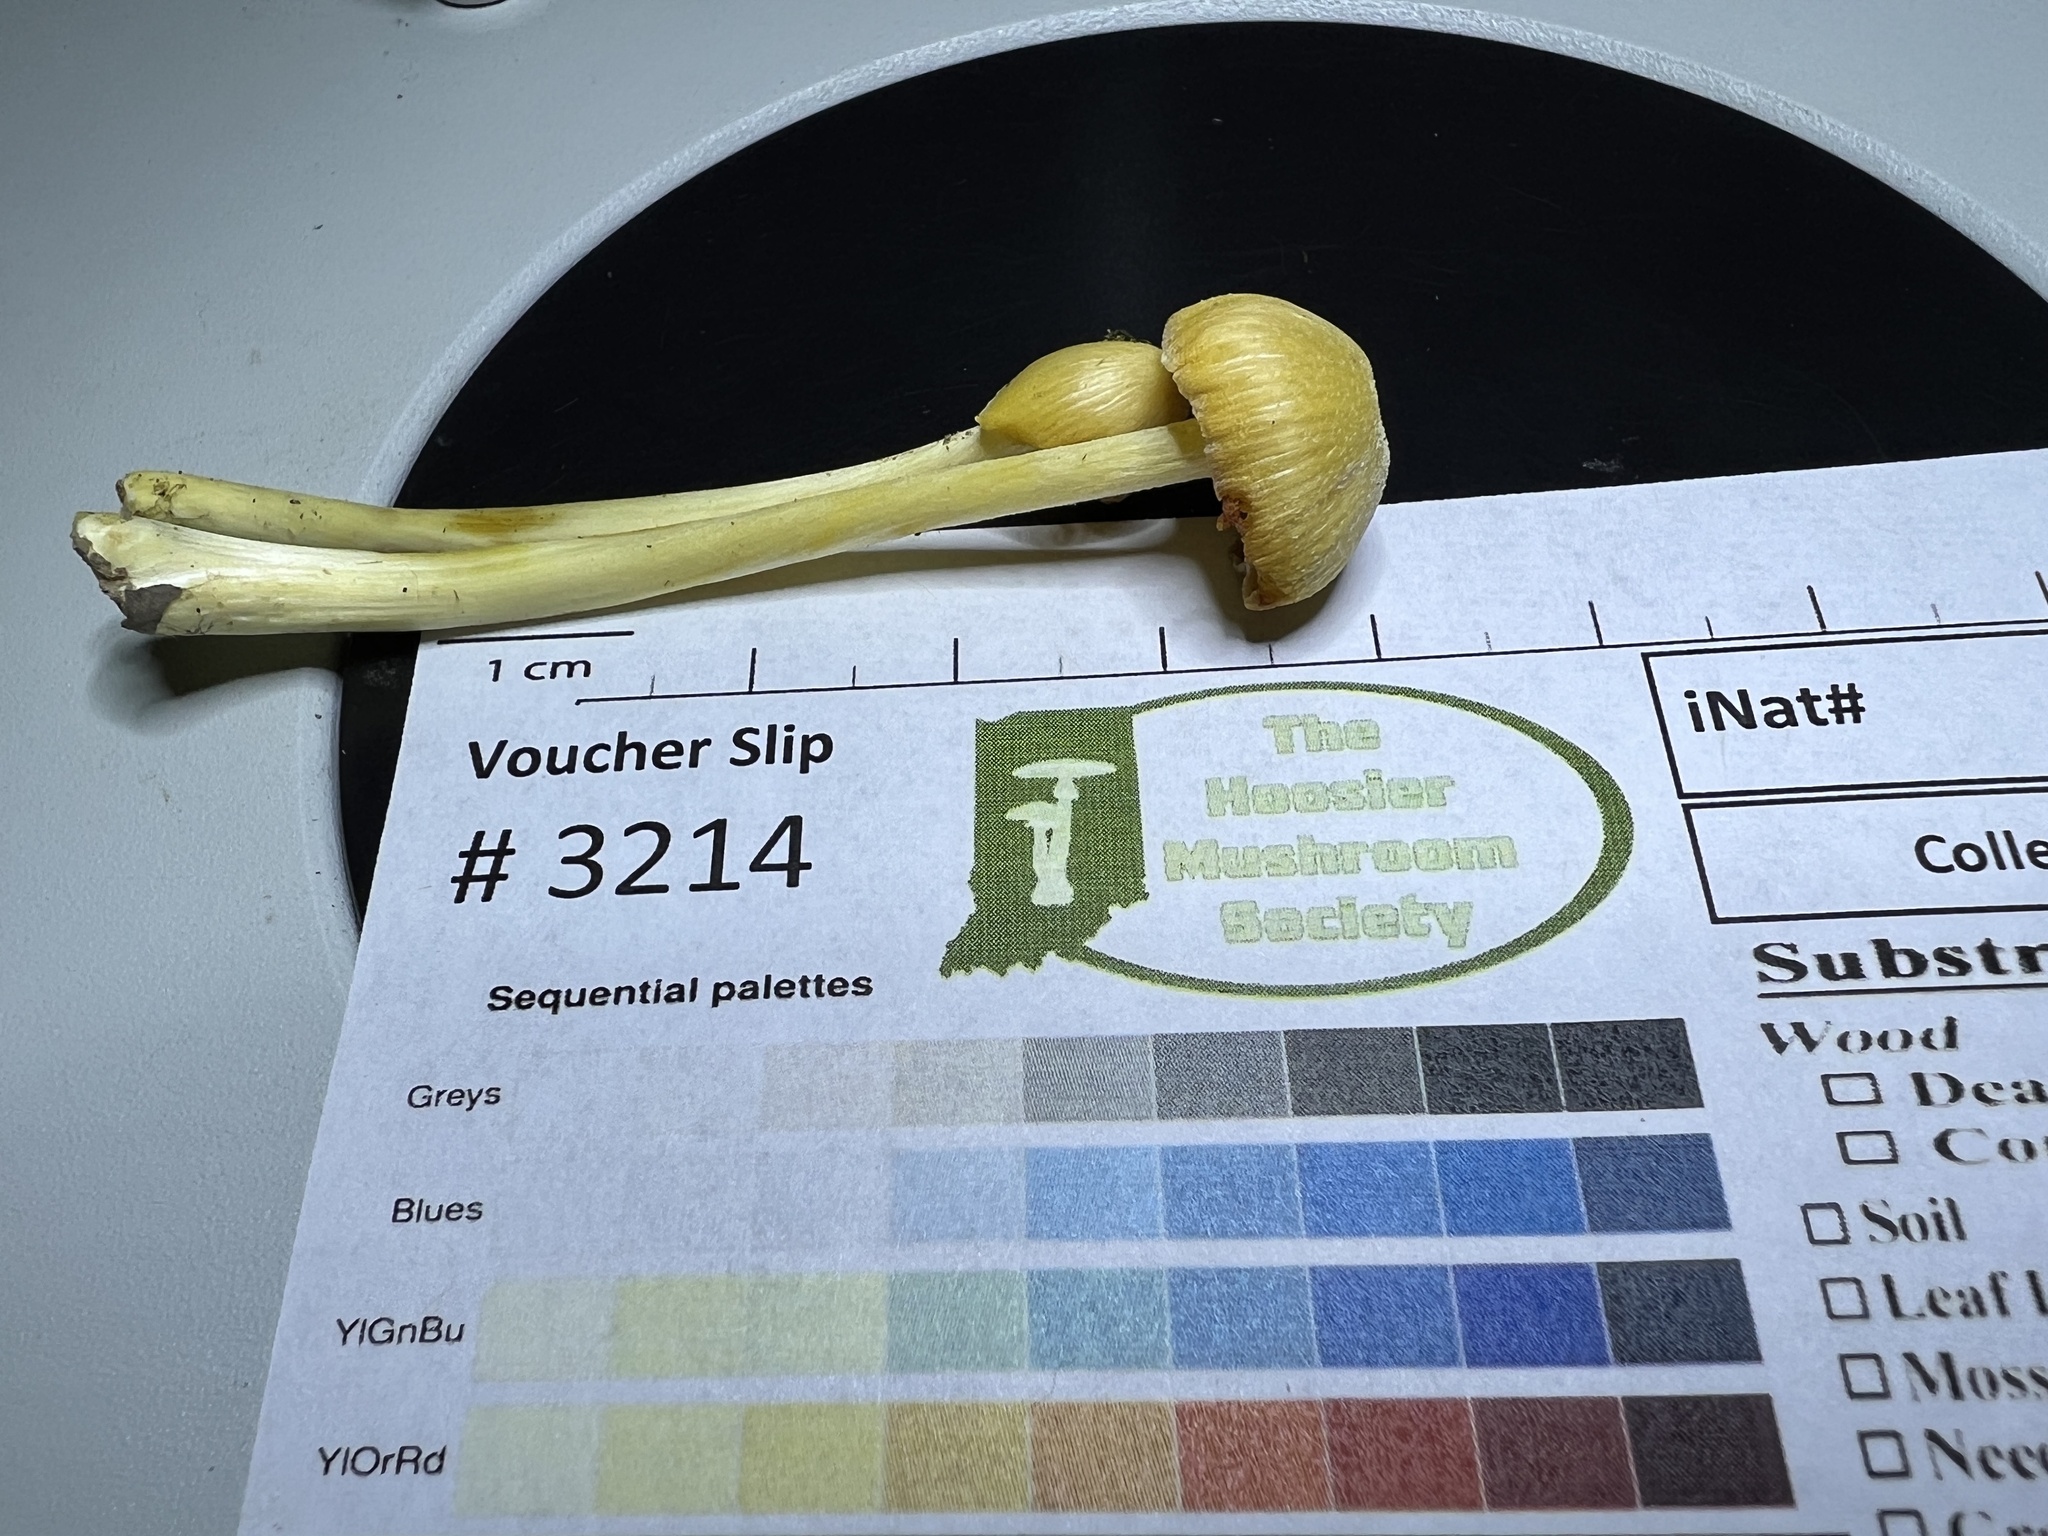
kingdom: Fungi
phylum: Basidiomycota
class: Agaricomycetes
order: Agaricales
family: Entolomataceae
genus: Entoloma
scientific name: Entoloma murrayi
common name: Yellow unicorn entoloma
